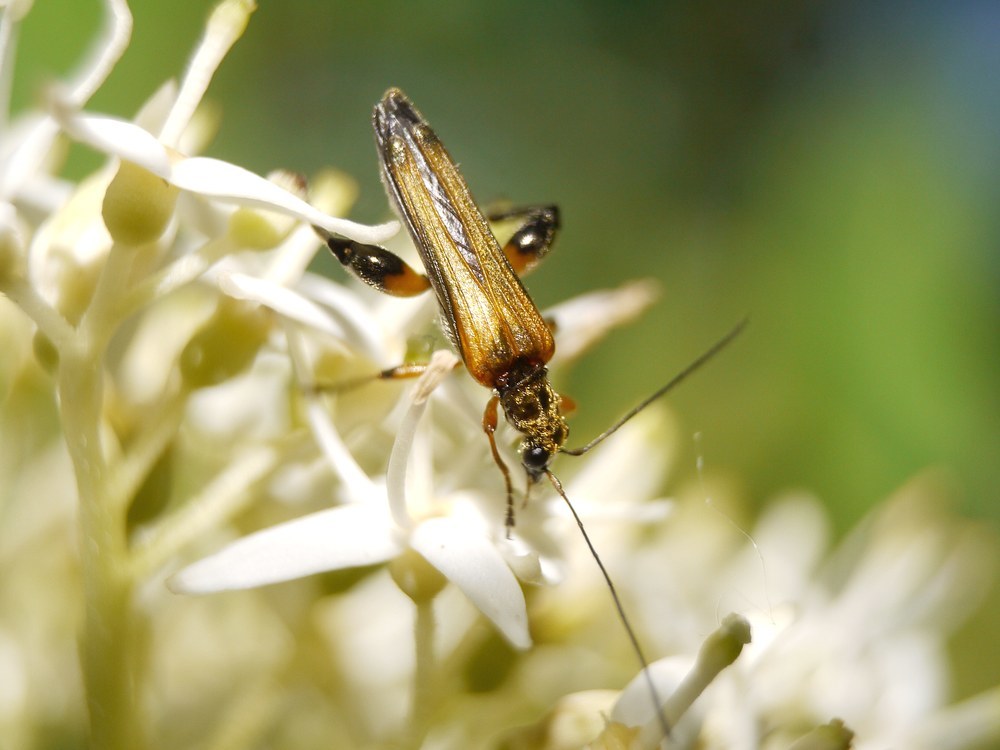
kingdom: Animalia
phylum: Arthropoda
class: Insecta
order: Coleoptera
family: Oedemeridae
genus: Oedemera
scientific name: Oedemera podagrariae
